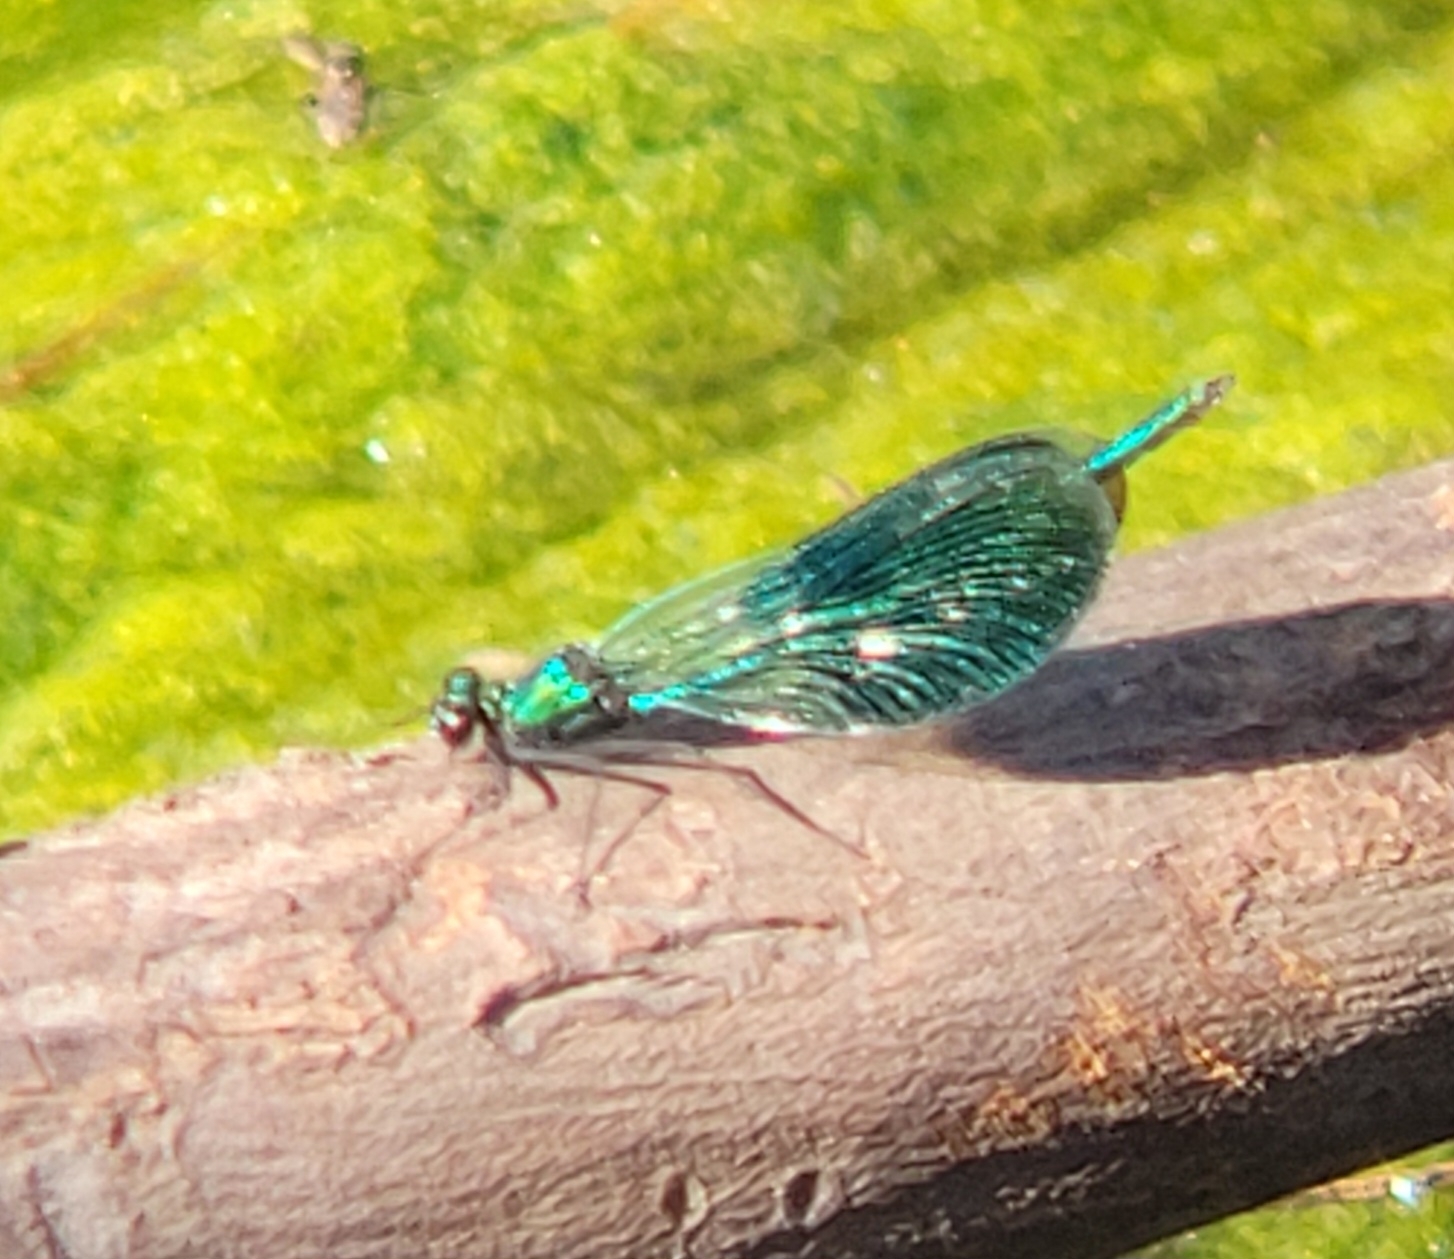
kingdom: Animalia
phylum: Arthropoda
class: Insecta
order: Odonata
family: Calopterygidae
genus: Calopteryx
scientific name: Calopteryx splendens
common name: Banded demoiselle
